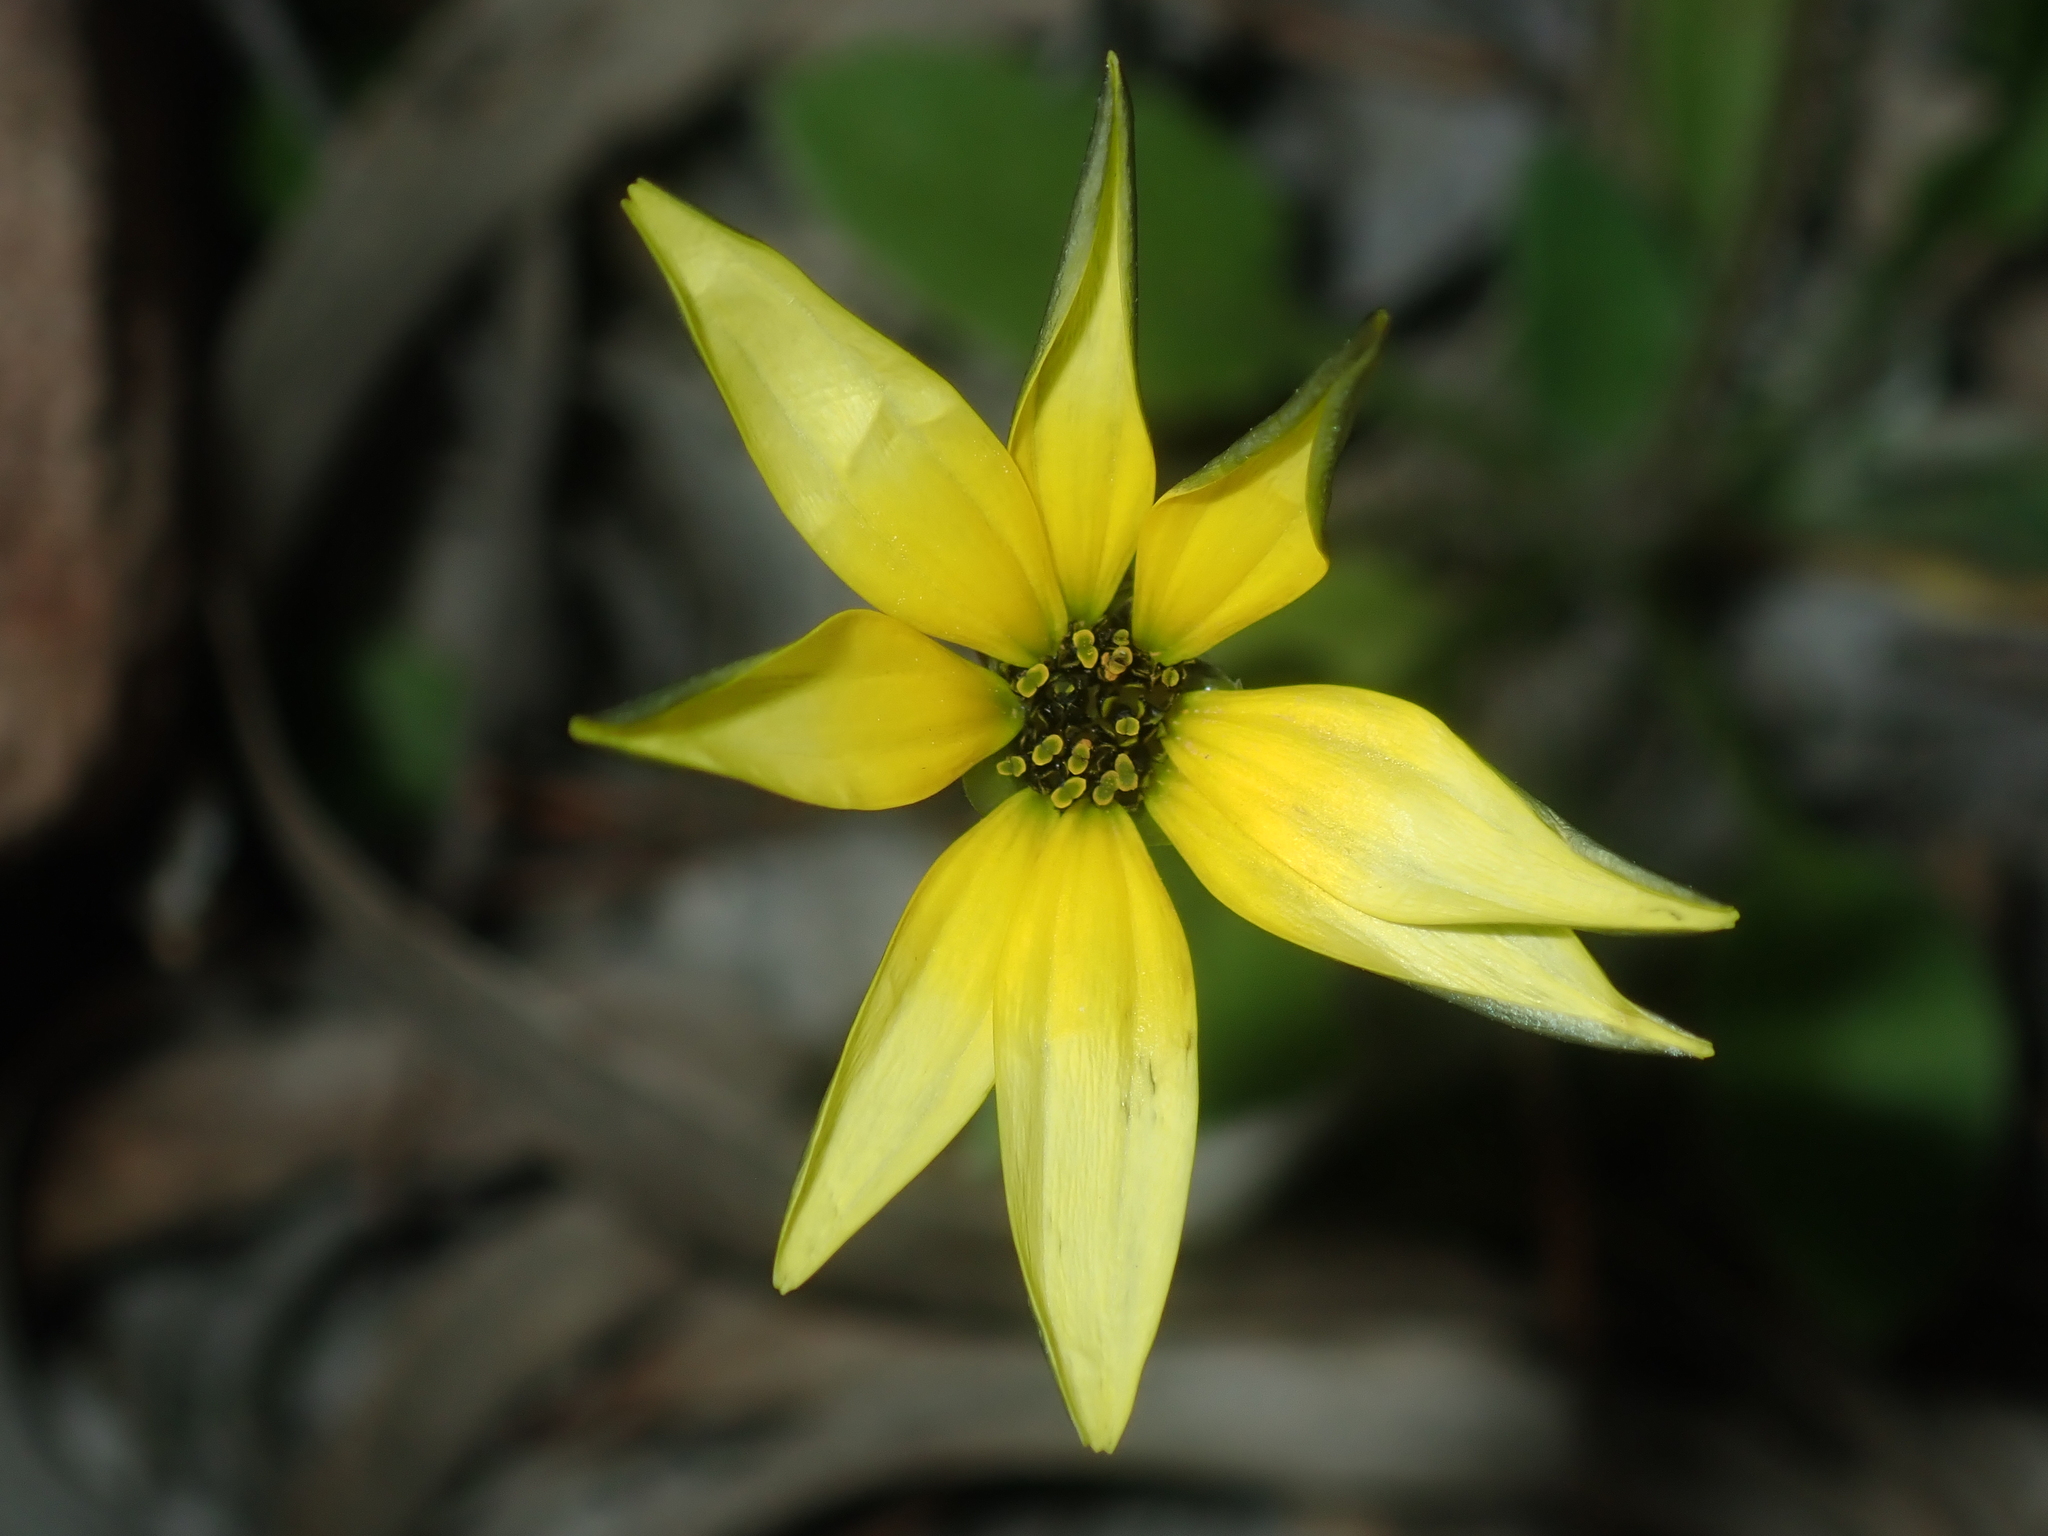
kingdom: Plantae
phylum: Tracheophyta
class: Magnoliopsida
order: Asterales
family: Asteraceae
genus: Arctotheca
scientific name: Arctotheca calendula
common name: Capeweed
